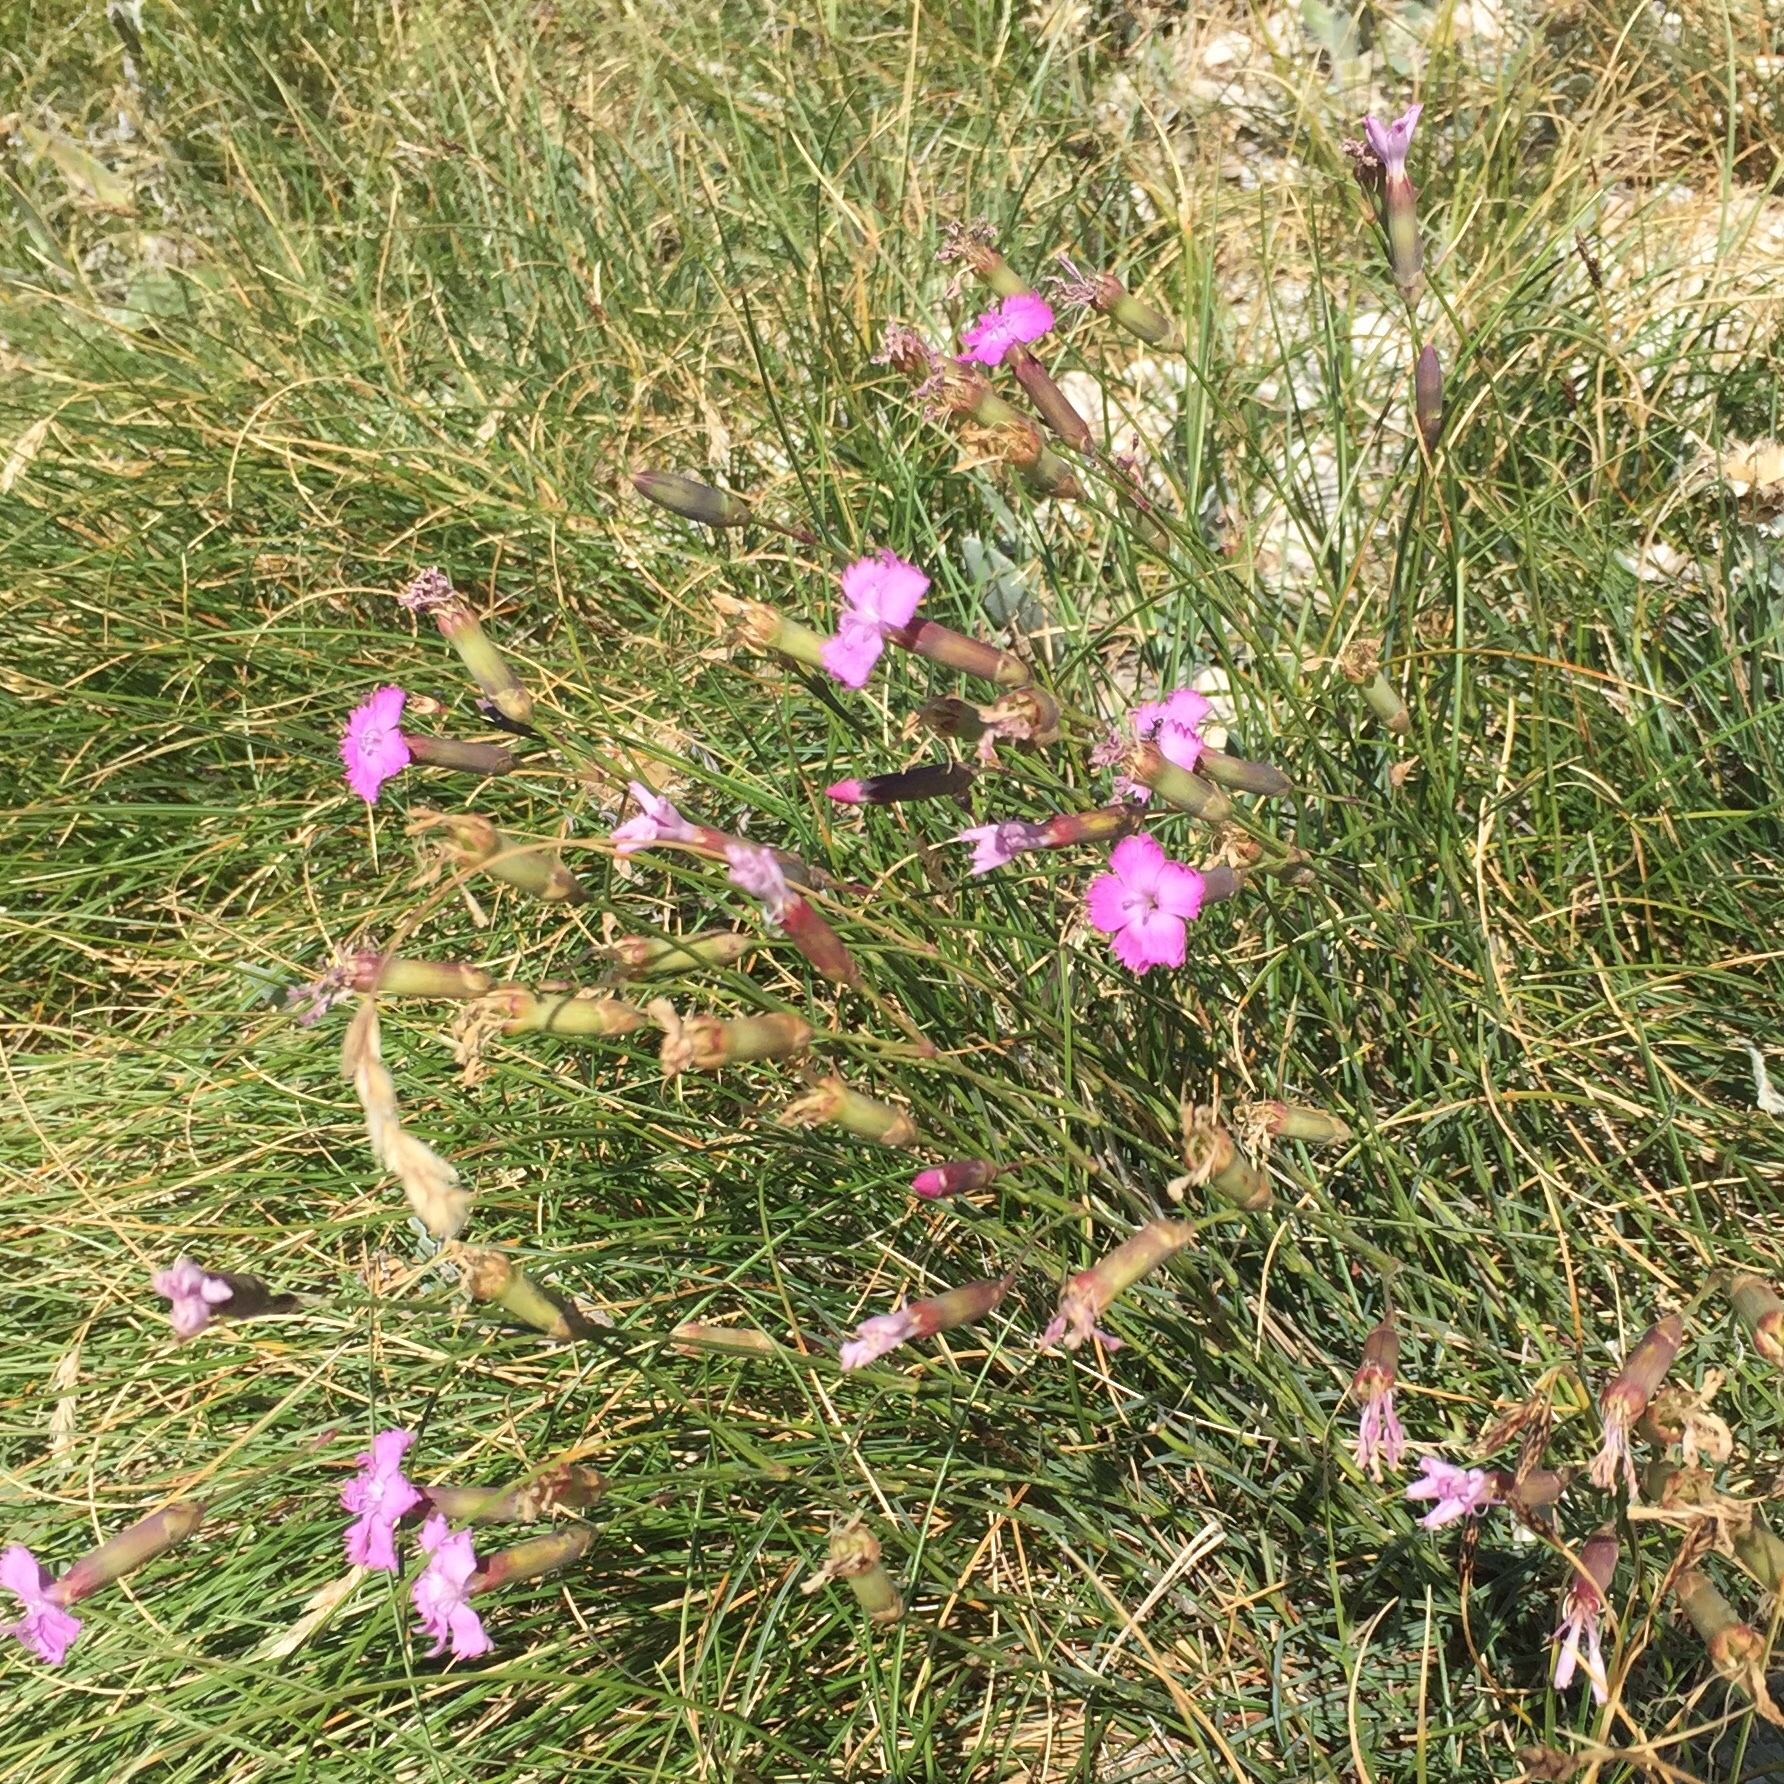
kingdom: Plantae
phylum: Tracheophyta
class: Magnoliopsida
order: Caryophyllales
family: Caryophyllaceae
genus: Dianthus
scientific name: Dianthus brachycalyx
